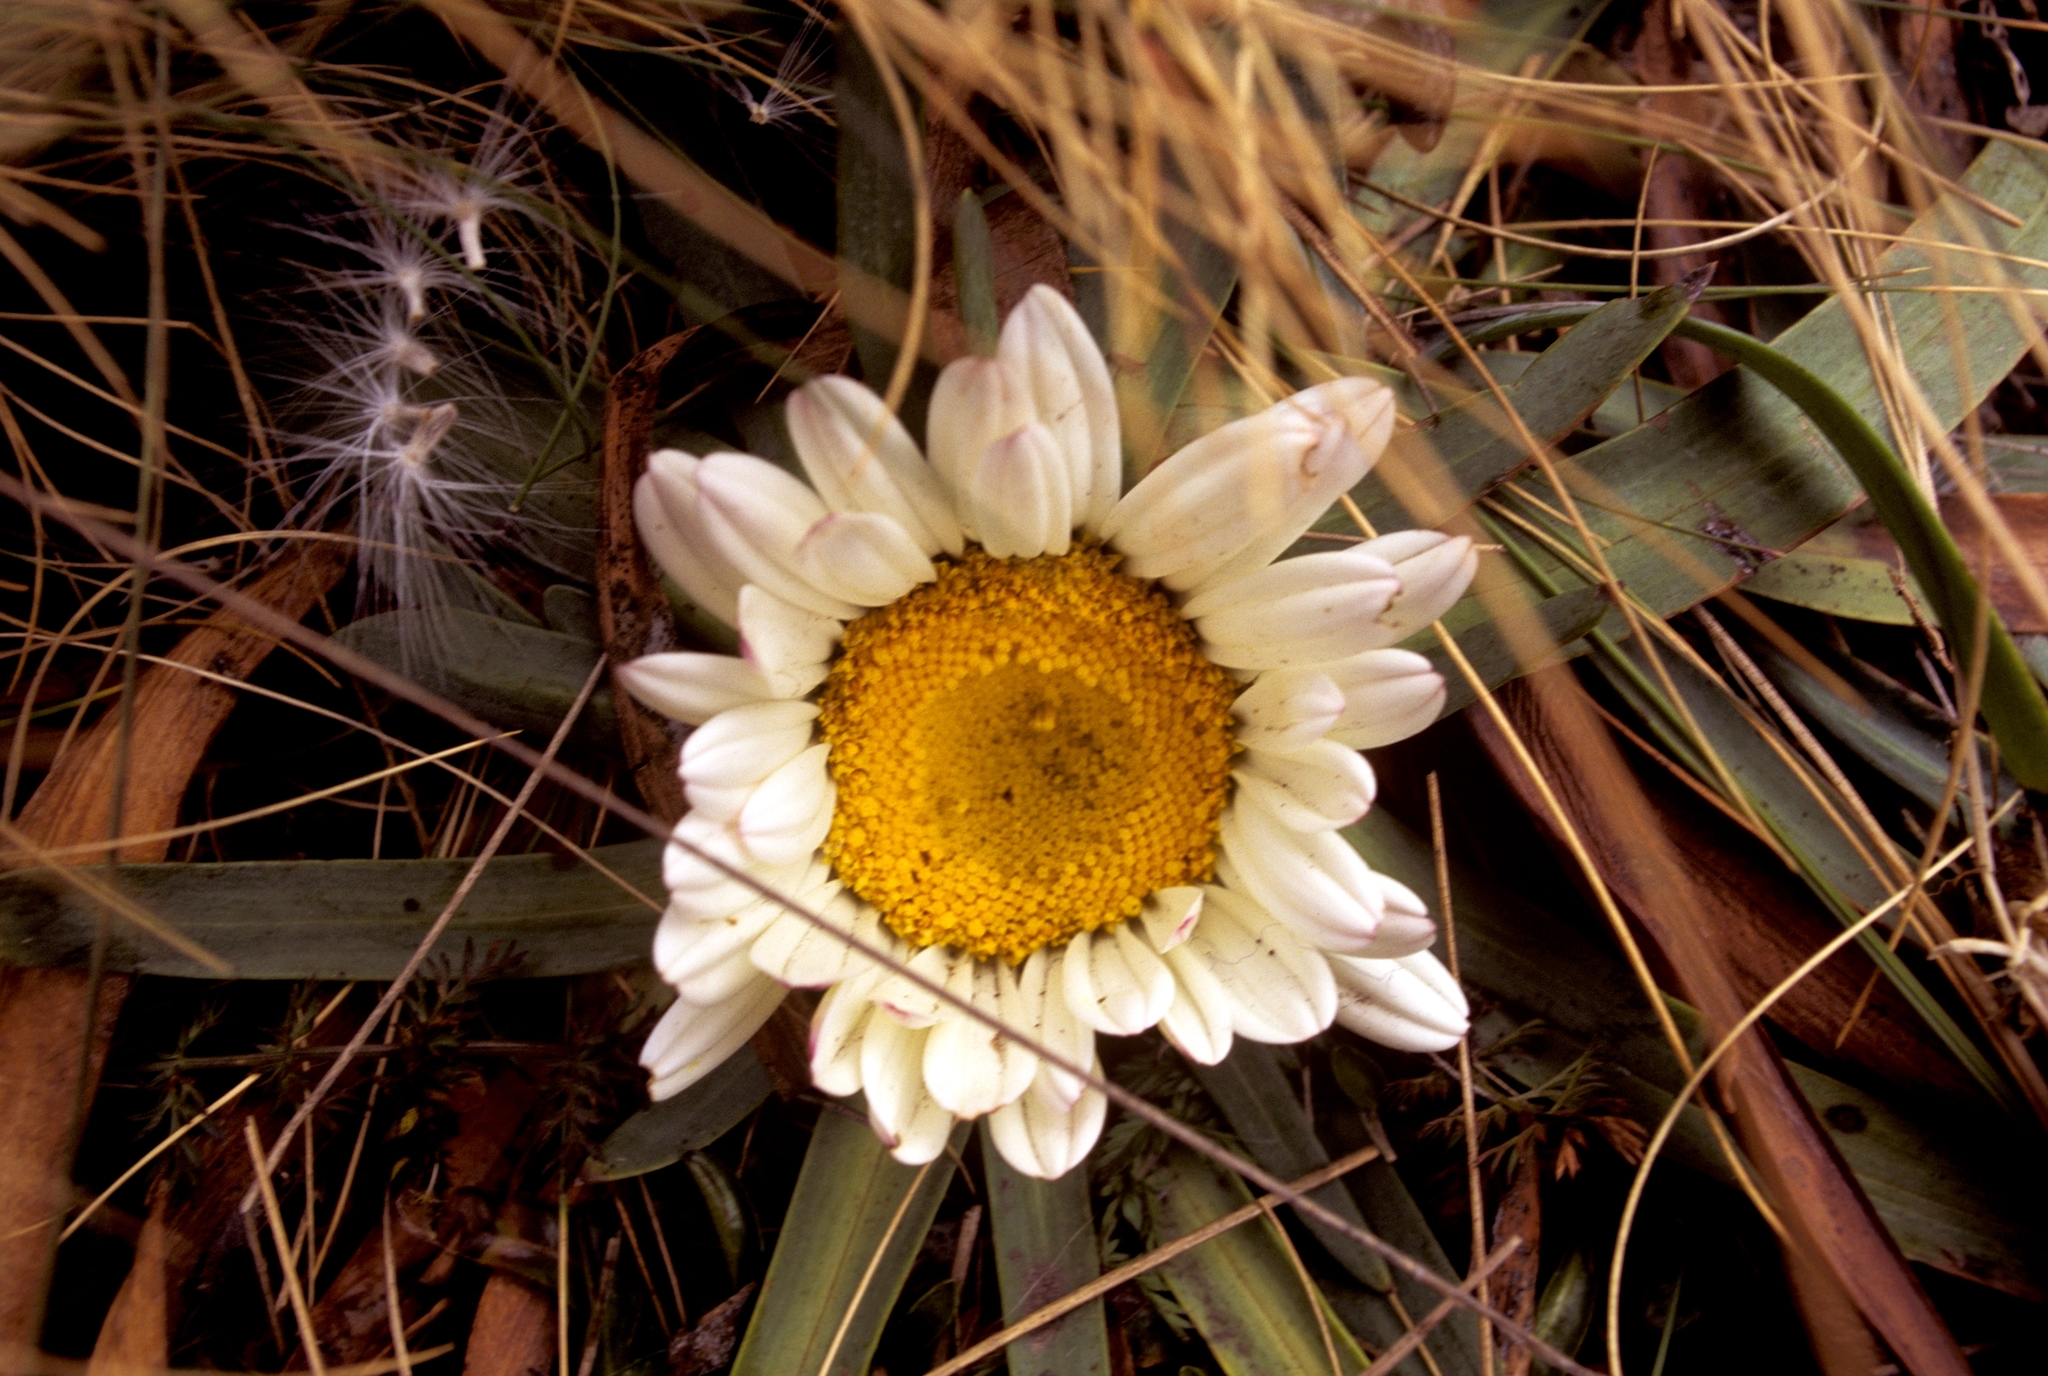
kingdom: Plantae
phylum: Tracheophyta
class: Magnoliopsida
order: Asterales
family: Asteraceae
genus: Rockhausenia
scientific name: Rockhausenia nubigena
